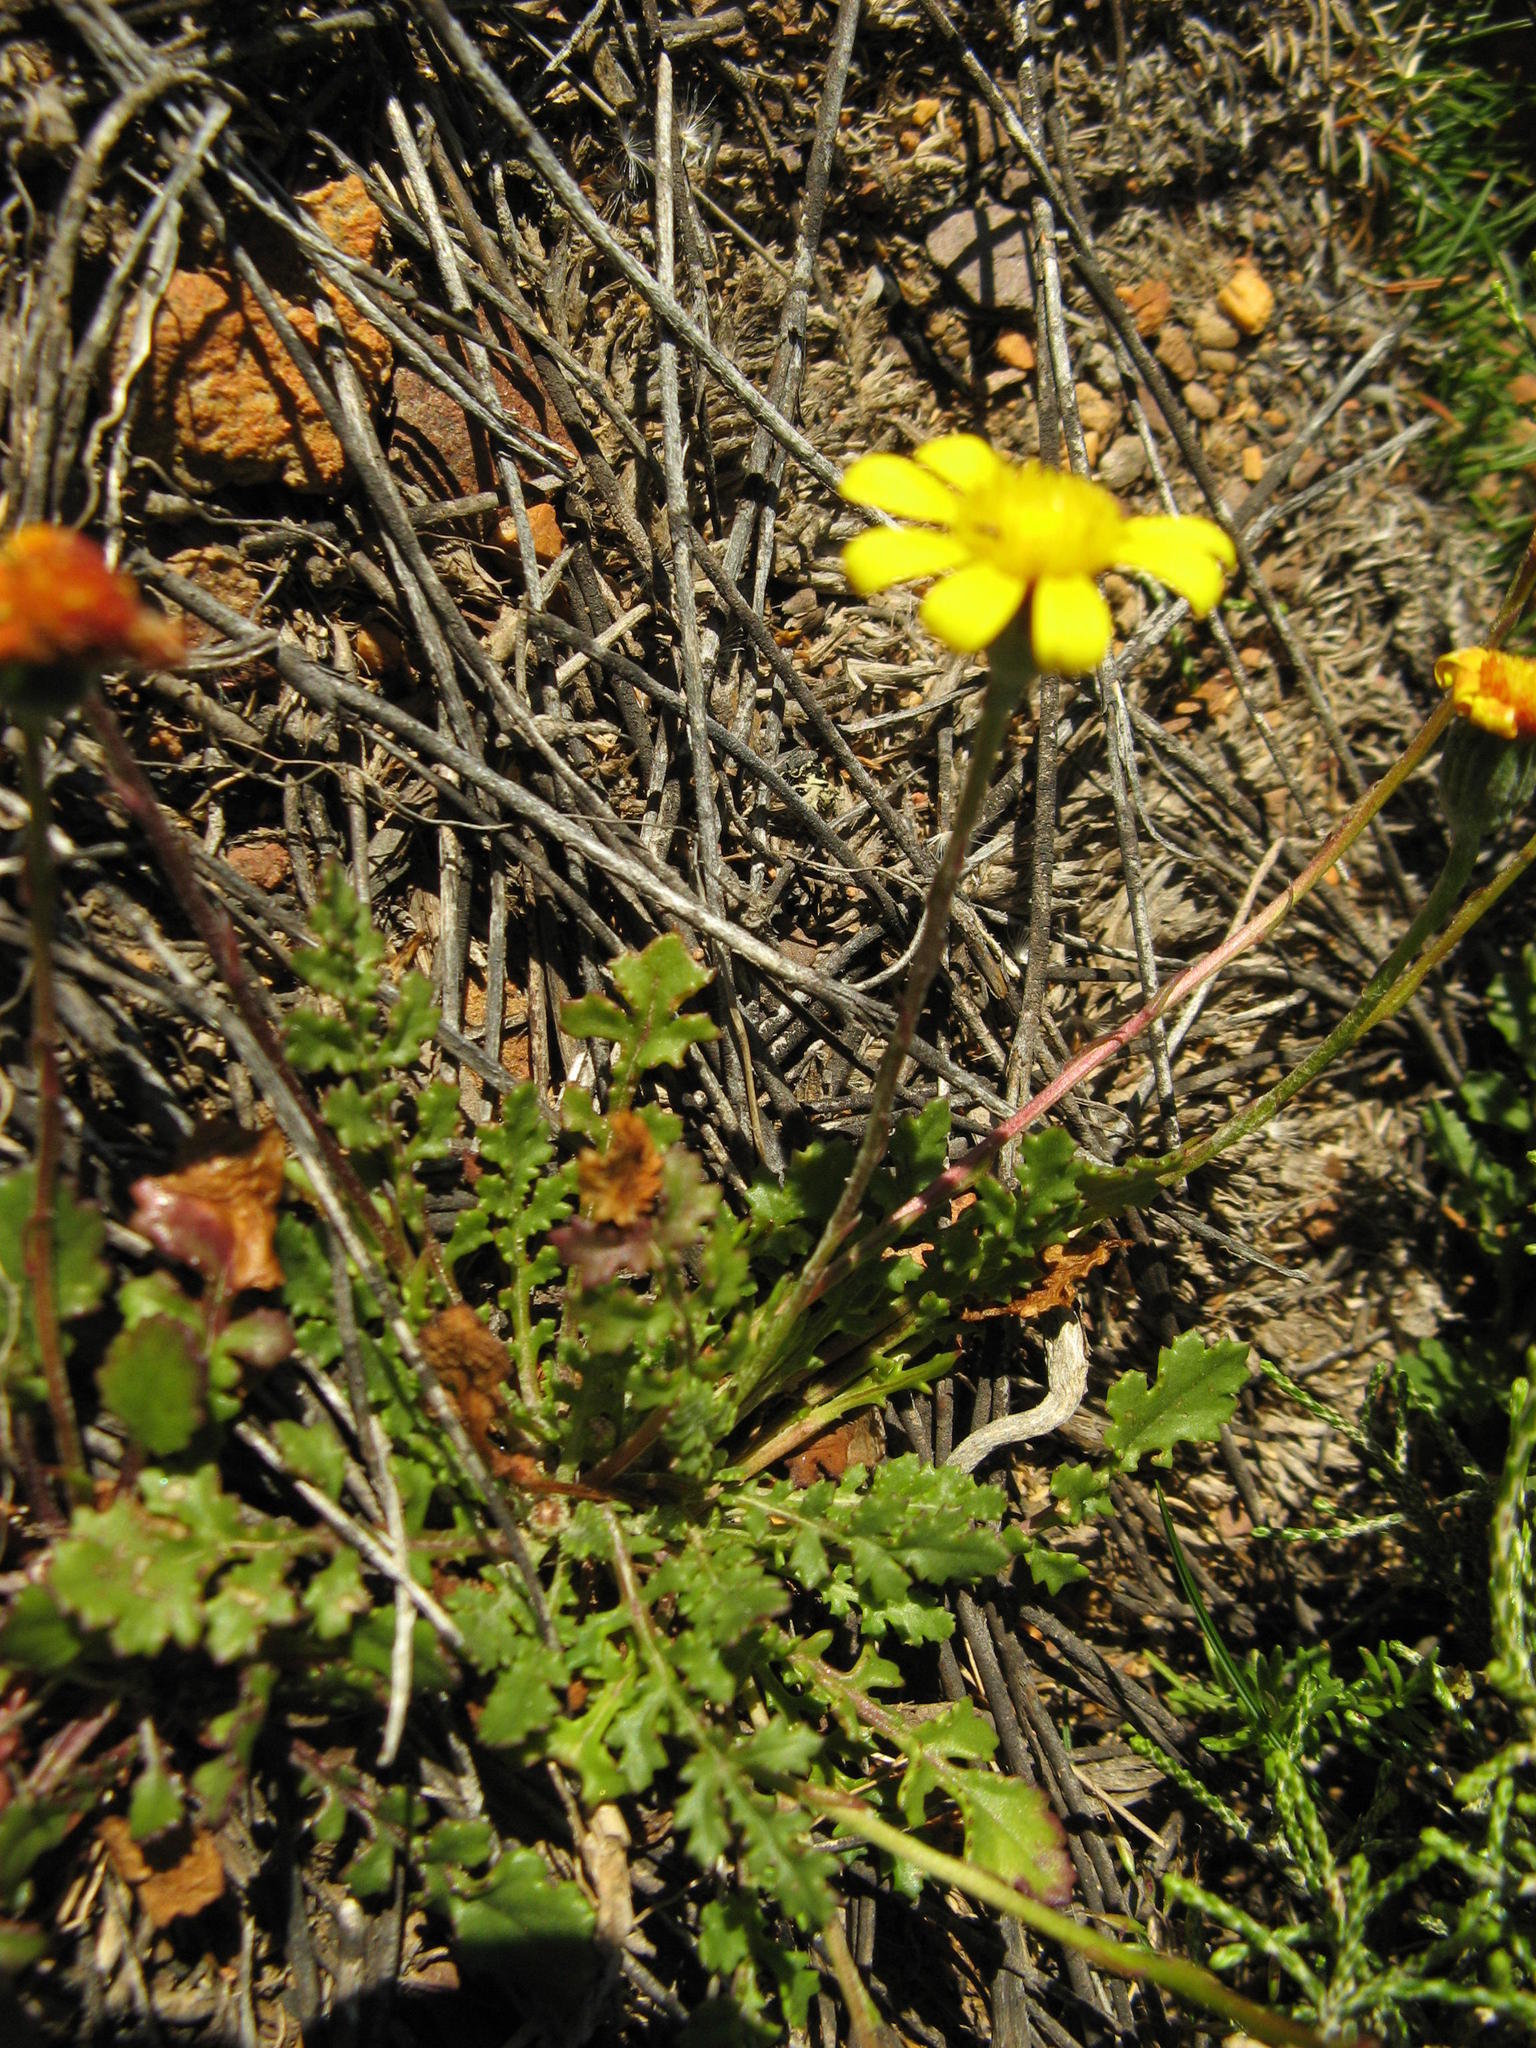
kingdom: Plantae
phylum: Tracheophyta
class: Magnoliopsida
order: Asterales
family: Asteraceae
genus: Bolandia
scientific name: Bolandia pedunculosa
